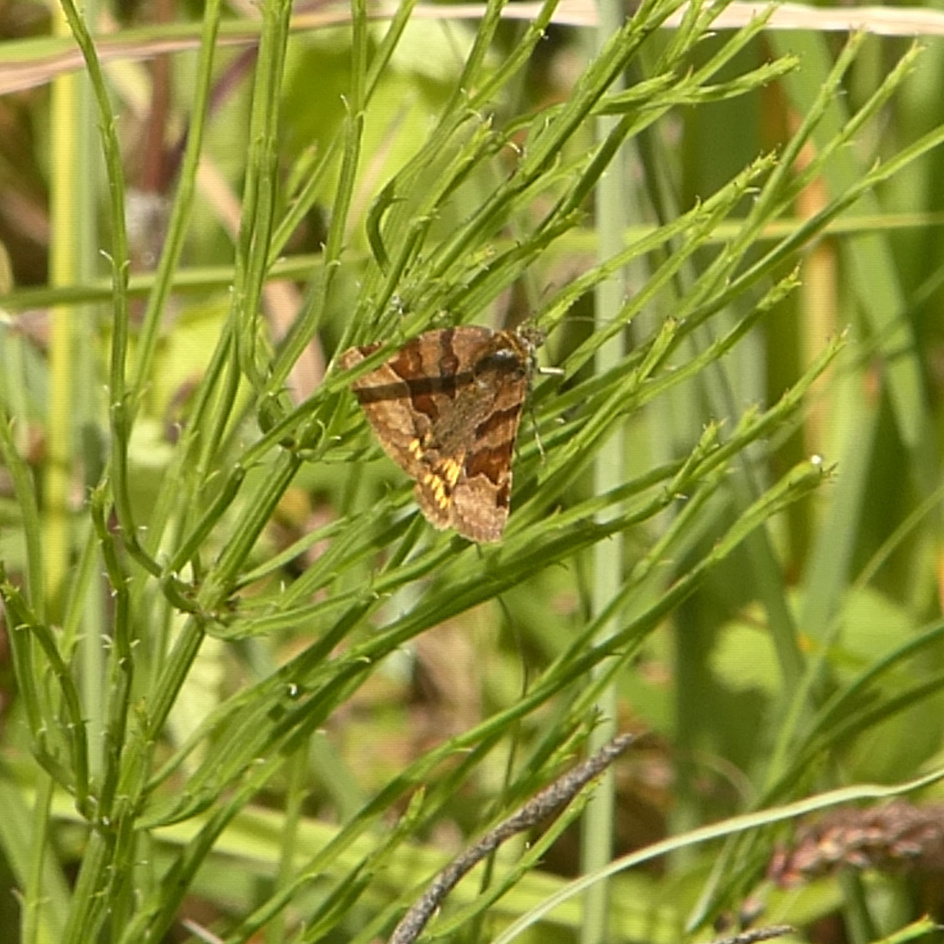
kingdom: Animalia
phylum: Arthropoda
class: Insecta
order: Lepidoptera
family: Erebidae
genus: Euclidia
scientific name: Euclidia glyphica
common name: Burnet companion
